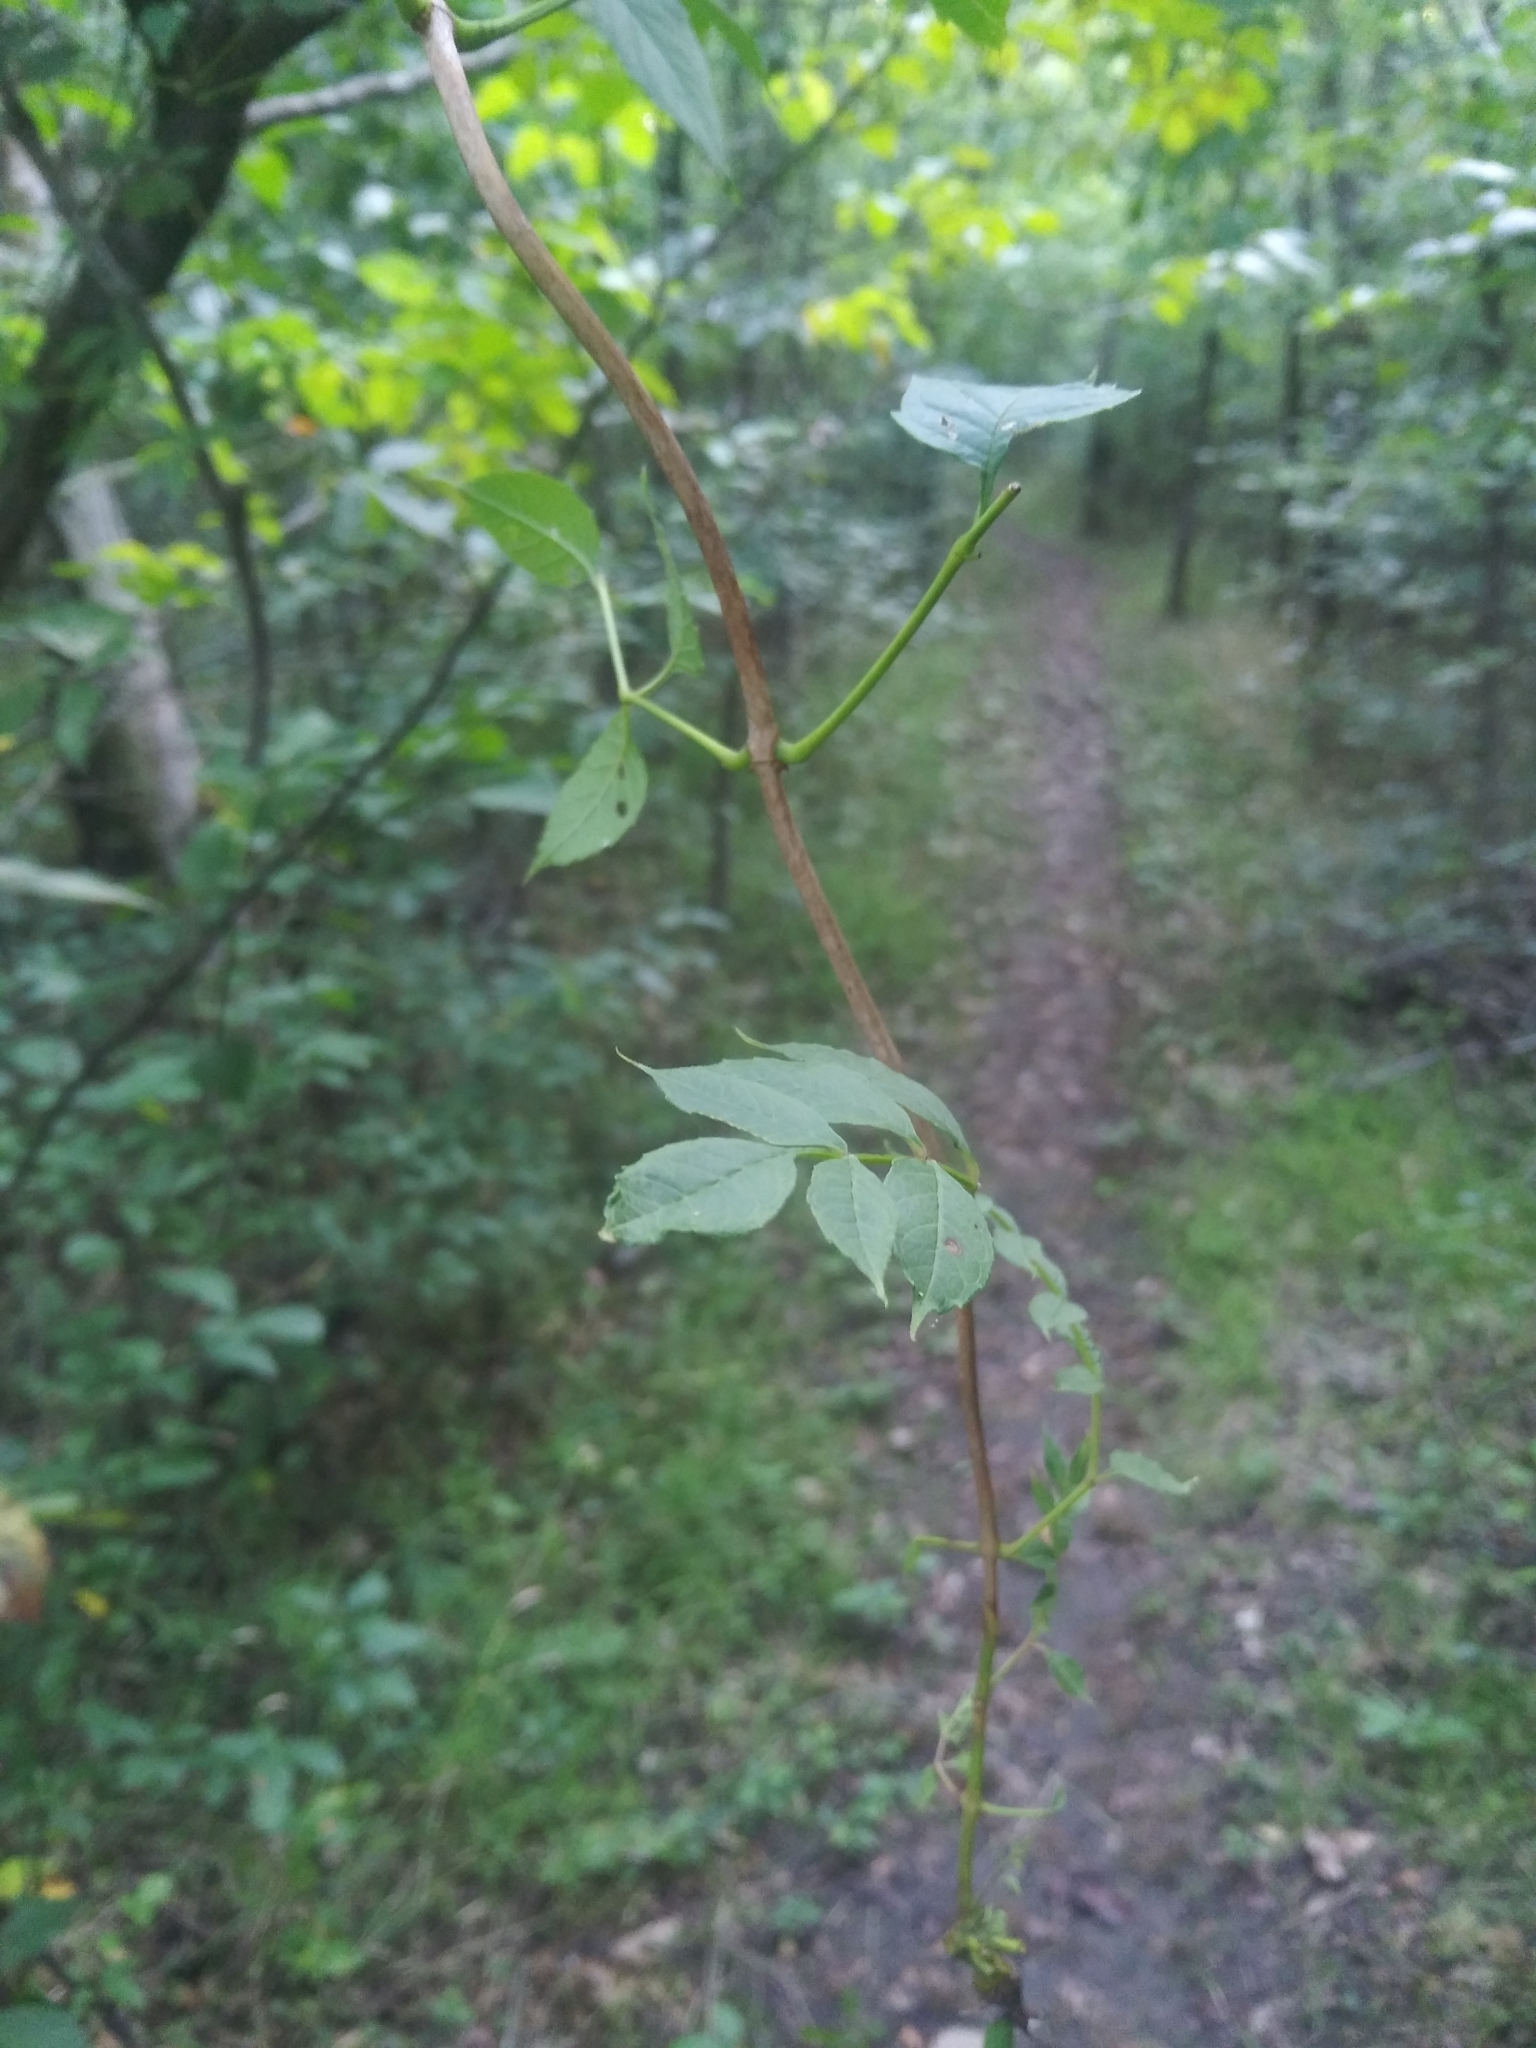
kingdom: Plantae
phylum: Tracheophyta
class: Magnoliopsida
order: Lamiales
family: Bignoniaceae
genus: Campsis
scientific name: Campsis radicans
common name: Trumpet-creeper
